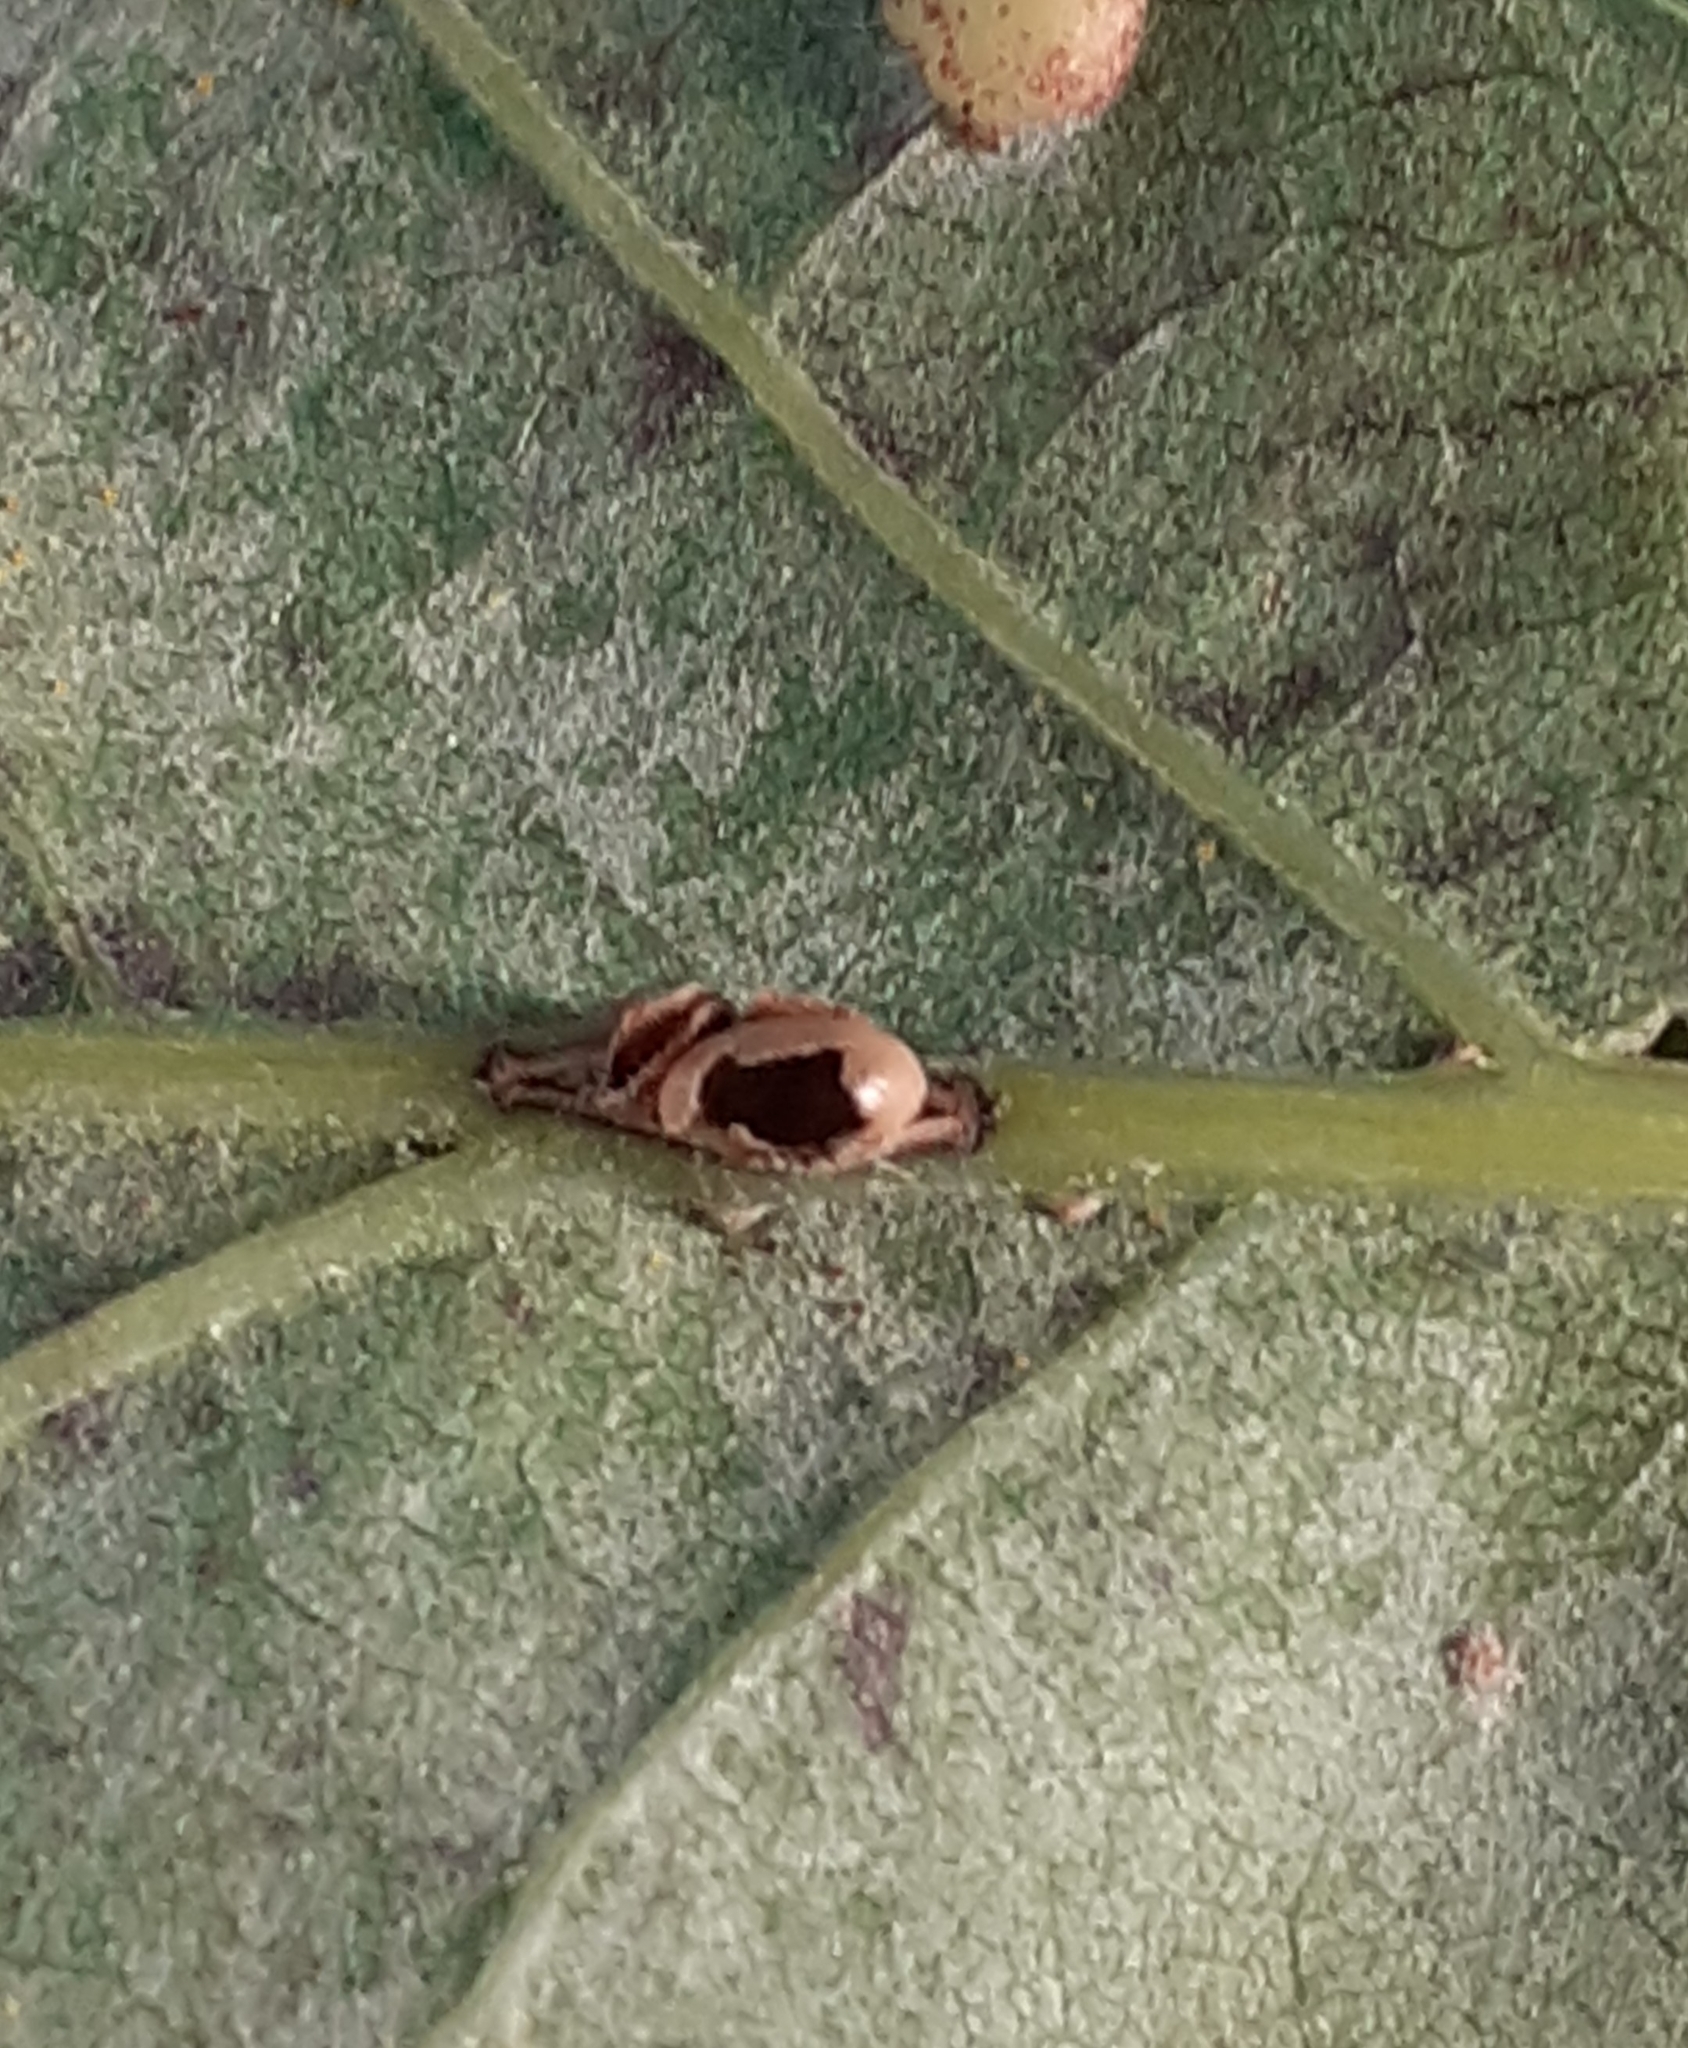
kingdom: Animalia
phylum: Arthropoda
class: Insecta
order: Hymenoptera
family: Cynipidae
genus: Neuroterus
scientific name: Neuroterus anthracinus
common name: Oyster gall
